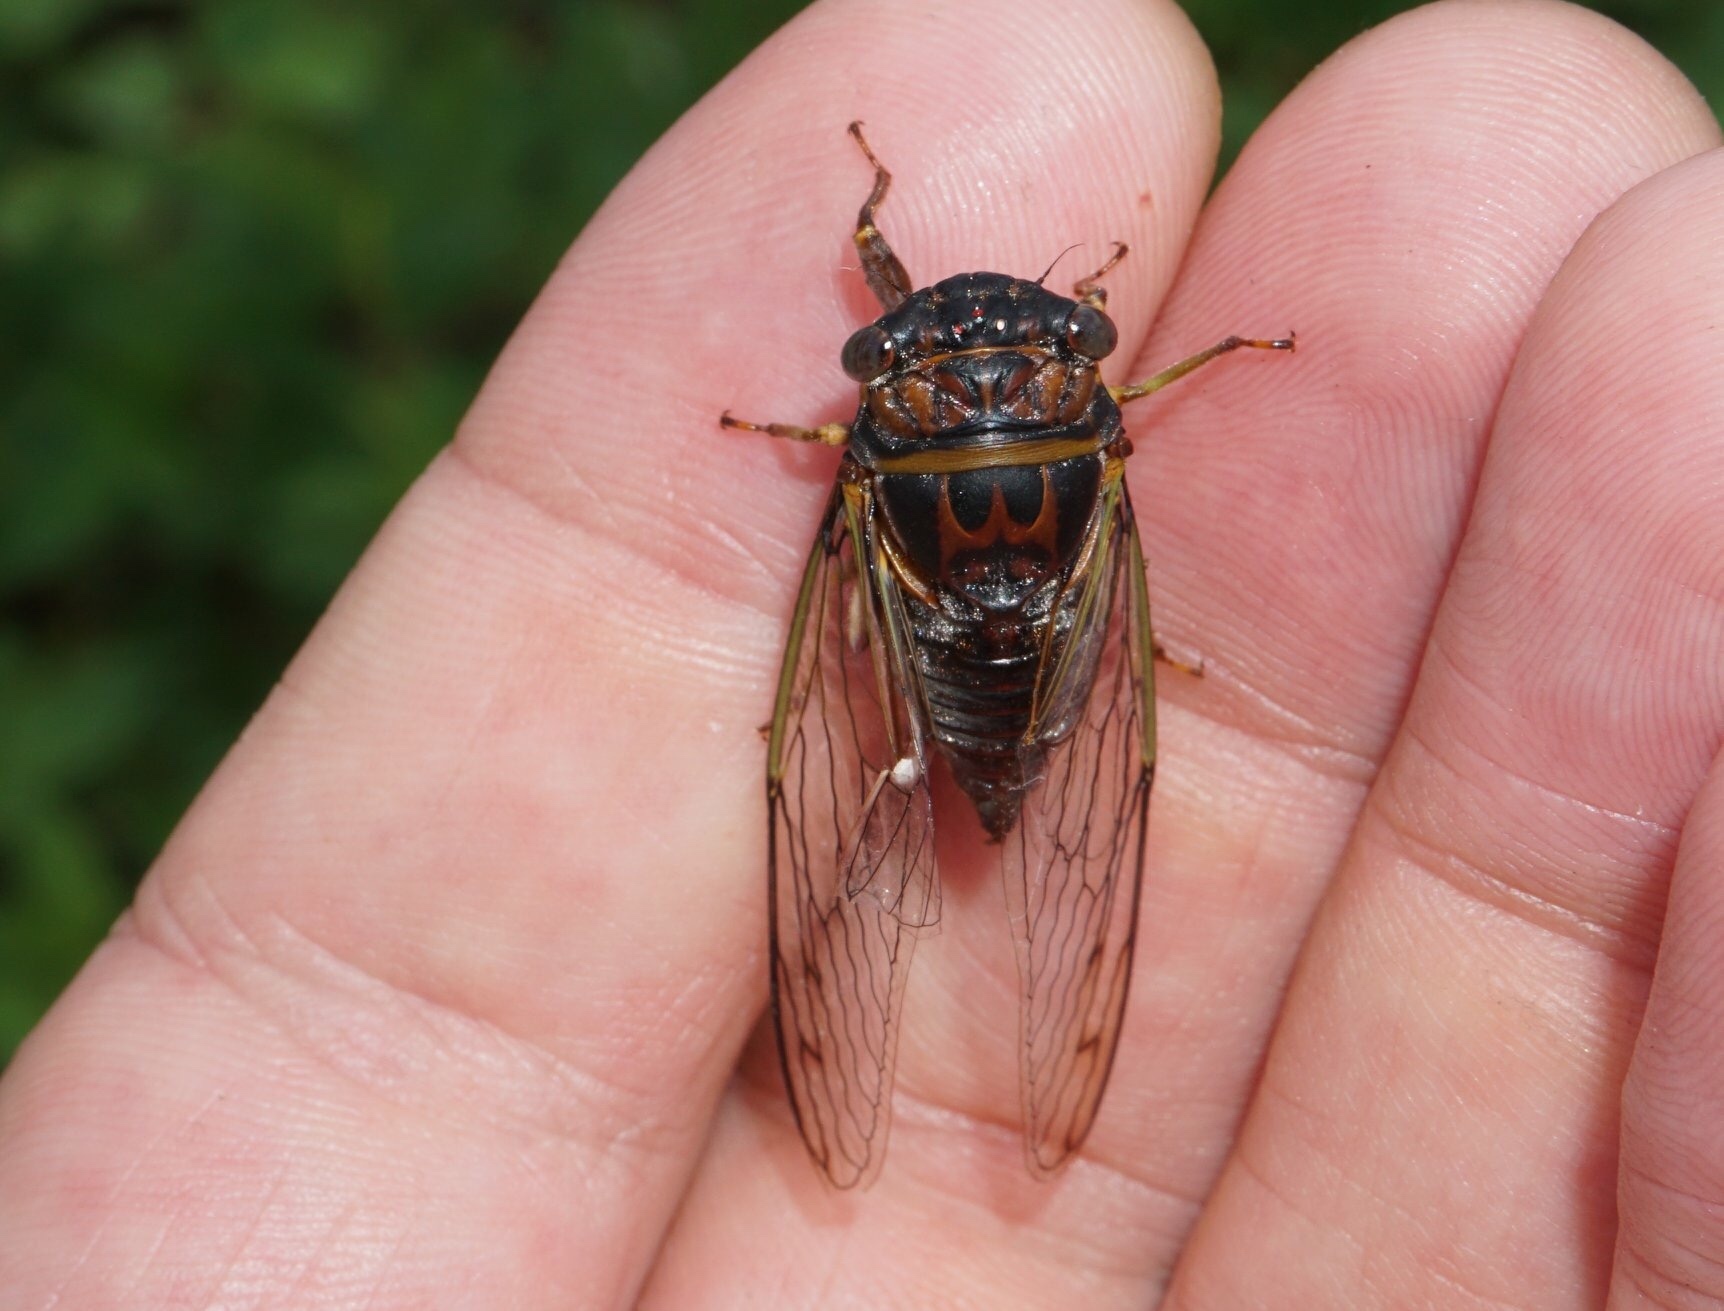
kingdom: Animalia
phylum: Arthropoda
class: Insecta
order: Hemiptera
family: Cicadidae
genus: Diceroprocta
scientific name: Diceroprocta olympusa
